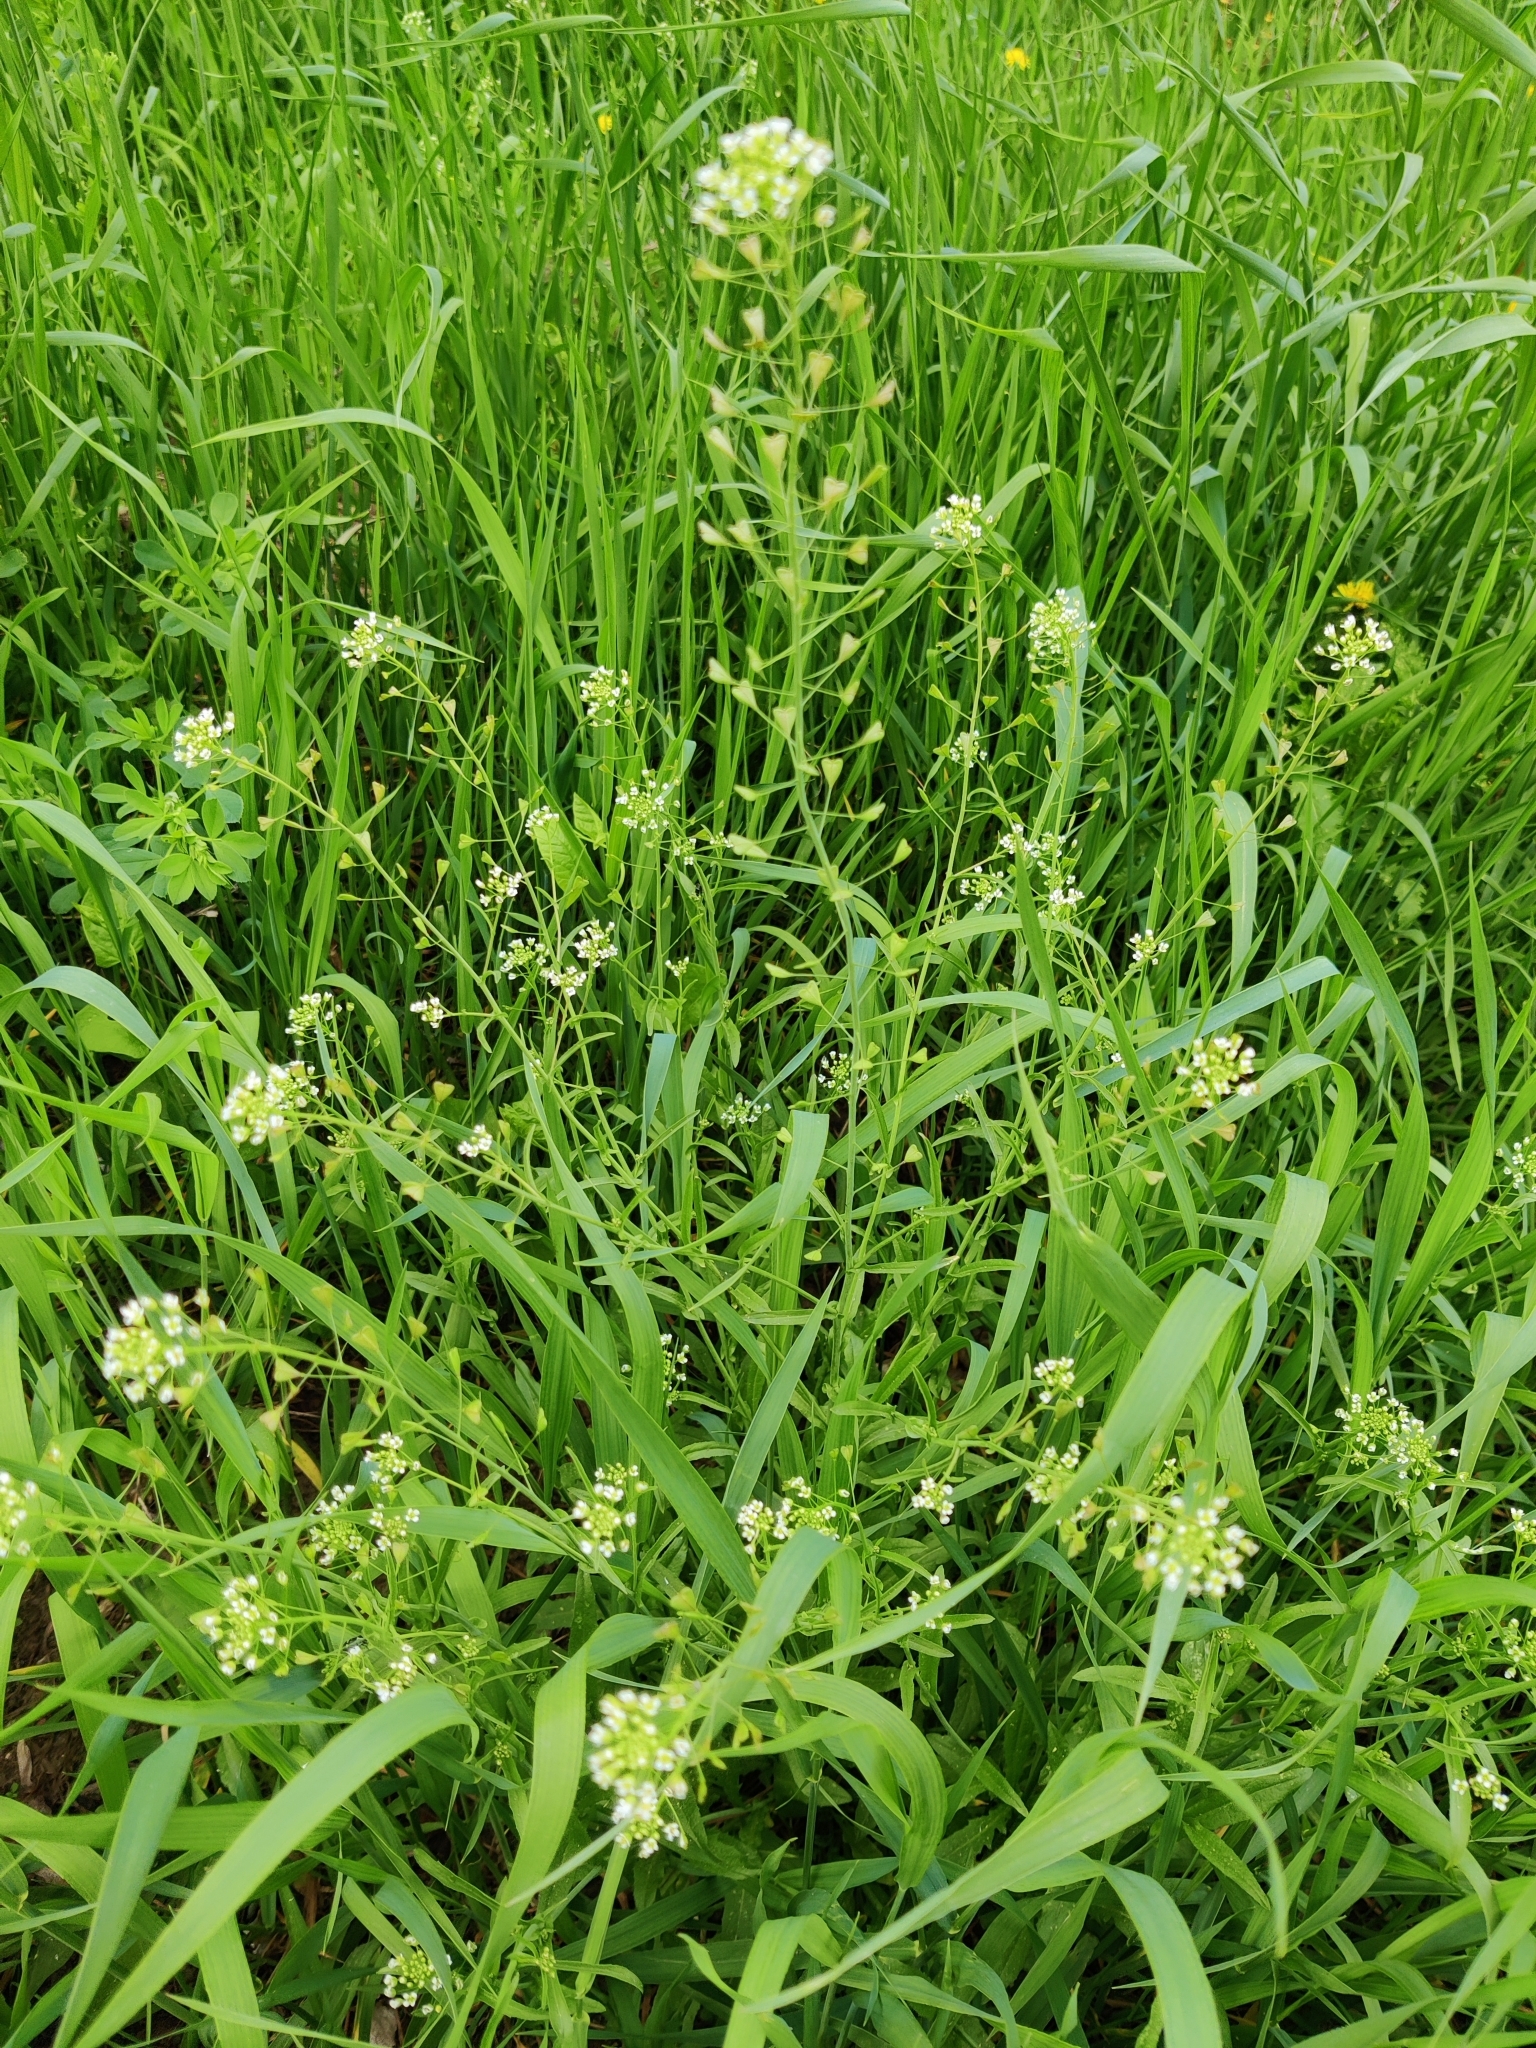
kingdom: Plantae
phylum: Tracheophyta
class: Magnoliopsida
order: Brassicales
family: Brassicaceae
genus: Capsella
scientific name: Capsella bursa-pastoris
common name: Shepherd's purse
